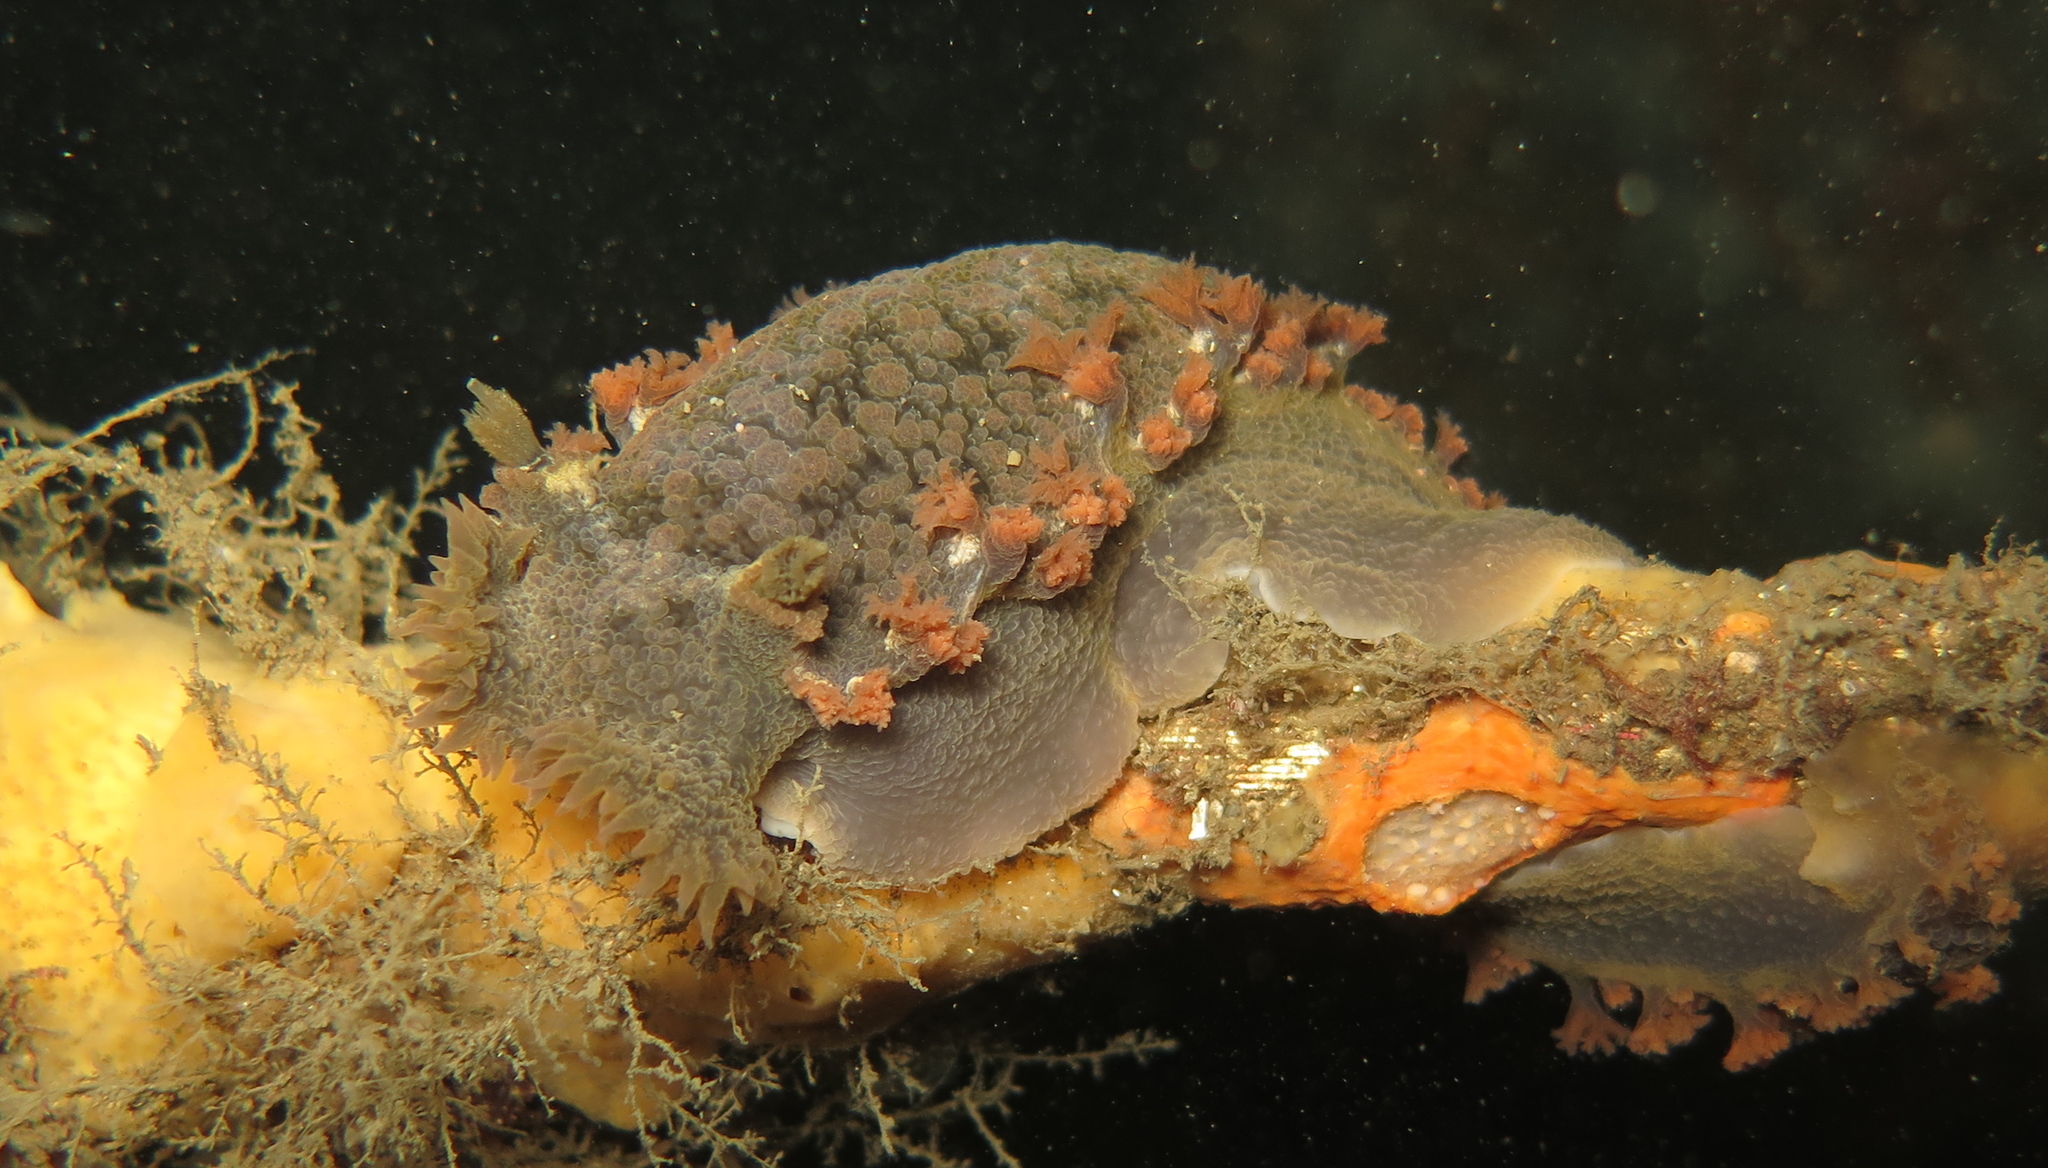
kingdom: Animalia
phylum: Mollusca
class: Gastropoda
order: Nudibranchia
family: Tritoniidae
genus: Tritonia
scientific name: Tritonia hombergii
